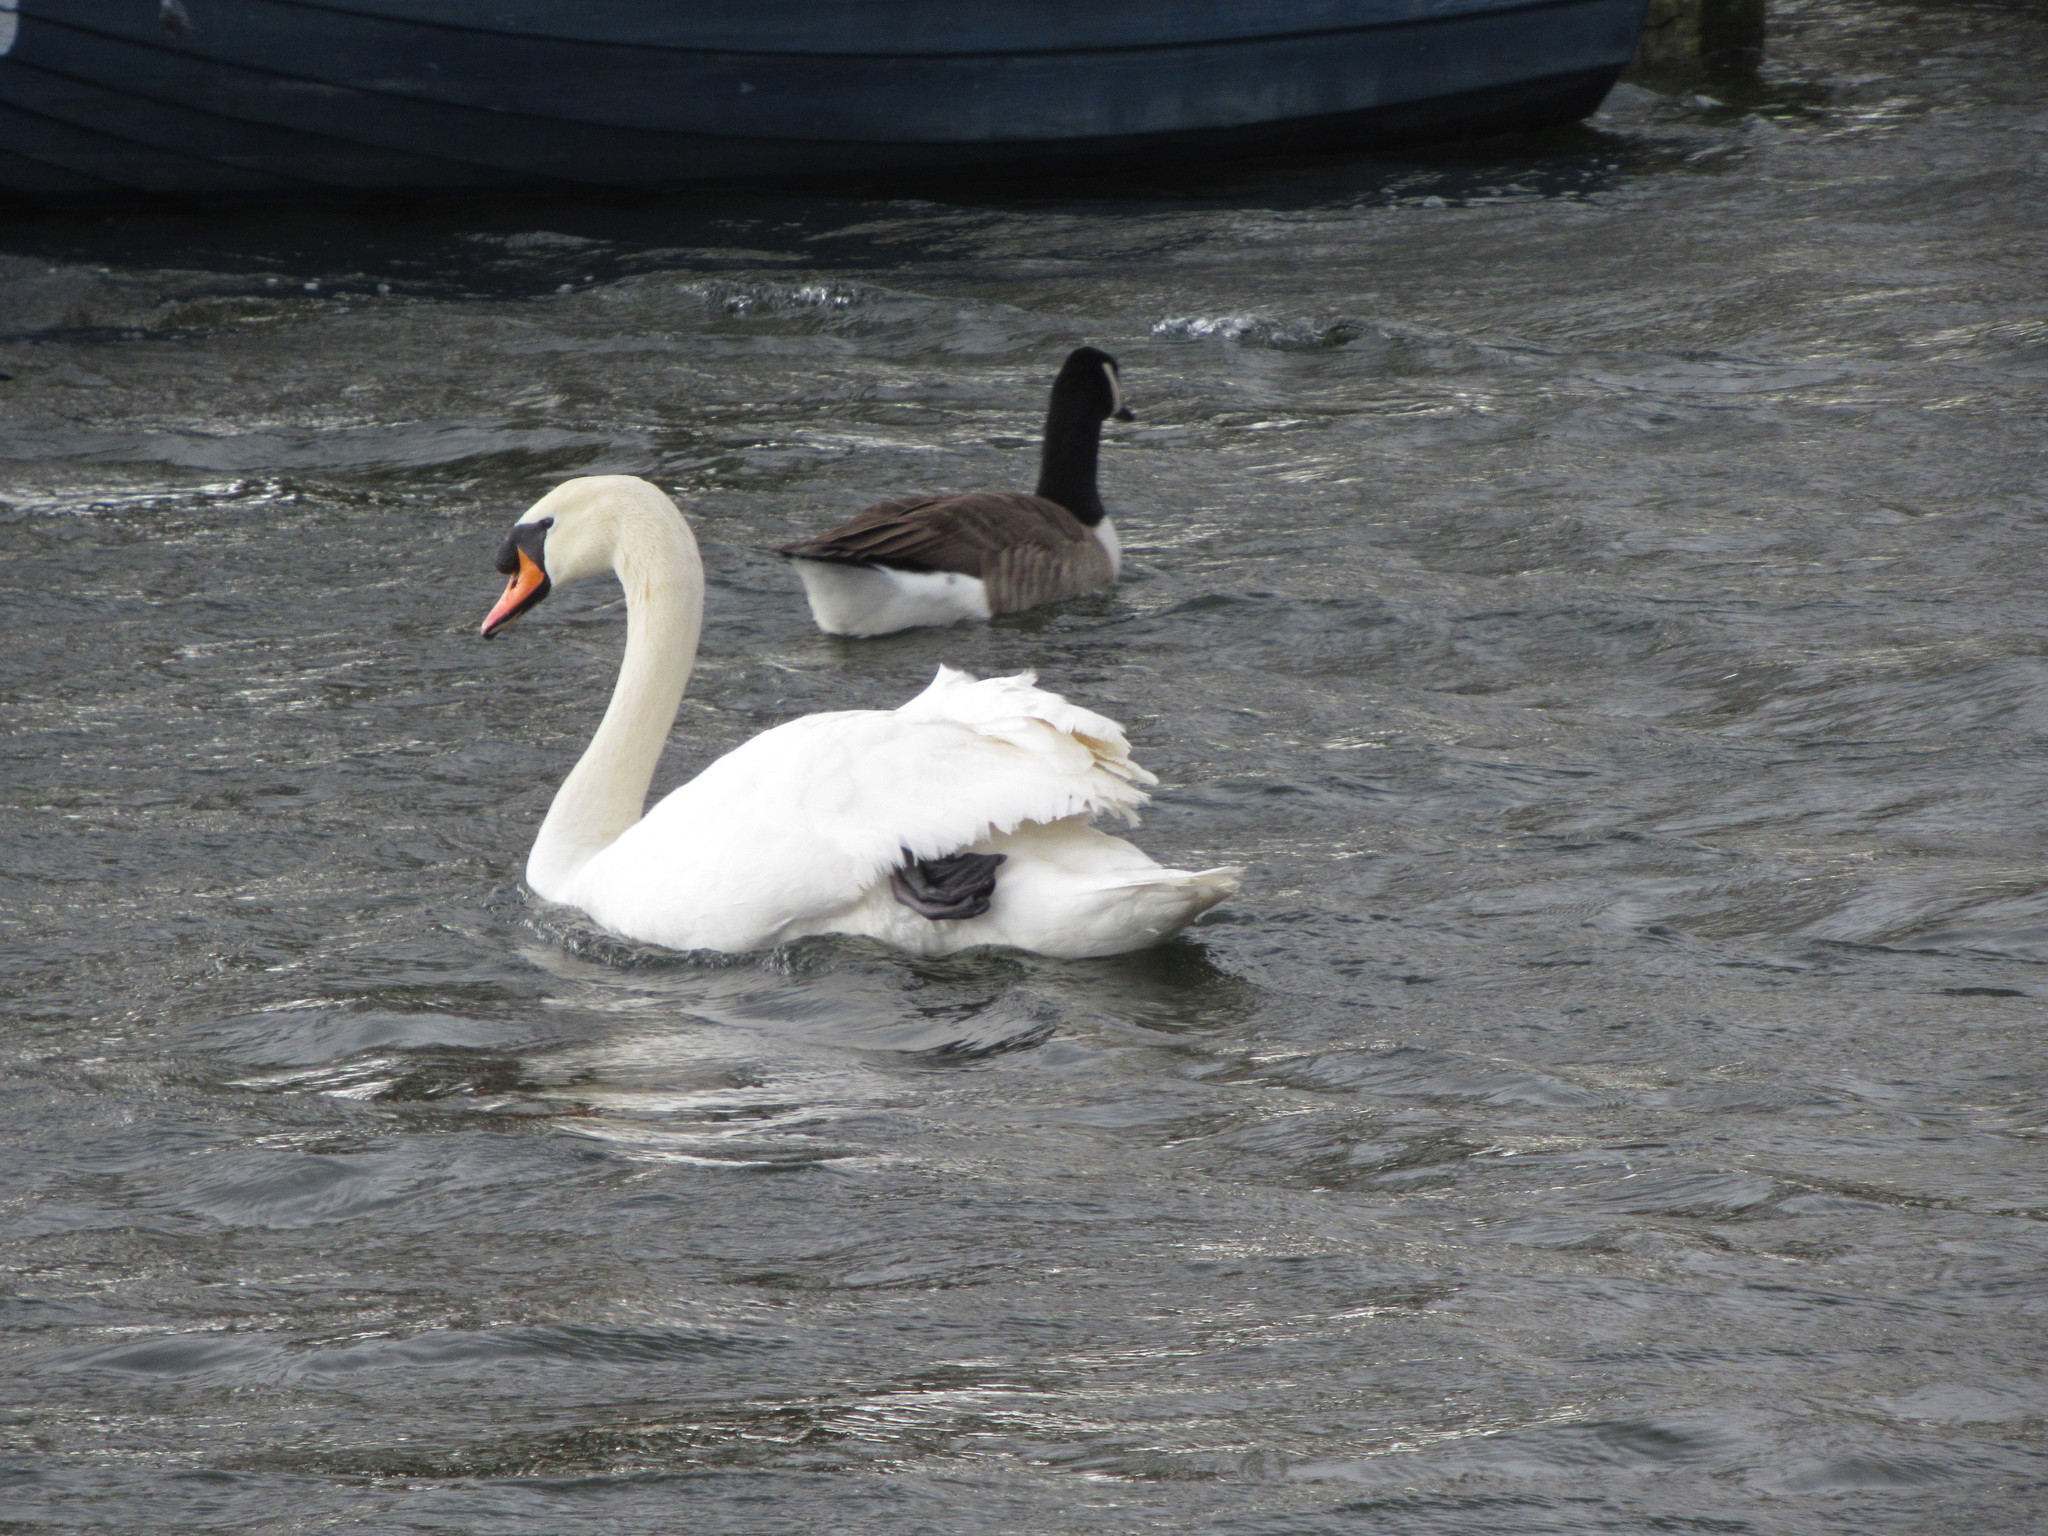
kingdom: Animalia
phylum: Chordata
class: Aves
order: Anseriformes
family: Anatidae
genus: Cygnus
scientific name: Cygnus olor
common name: Mute swan
